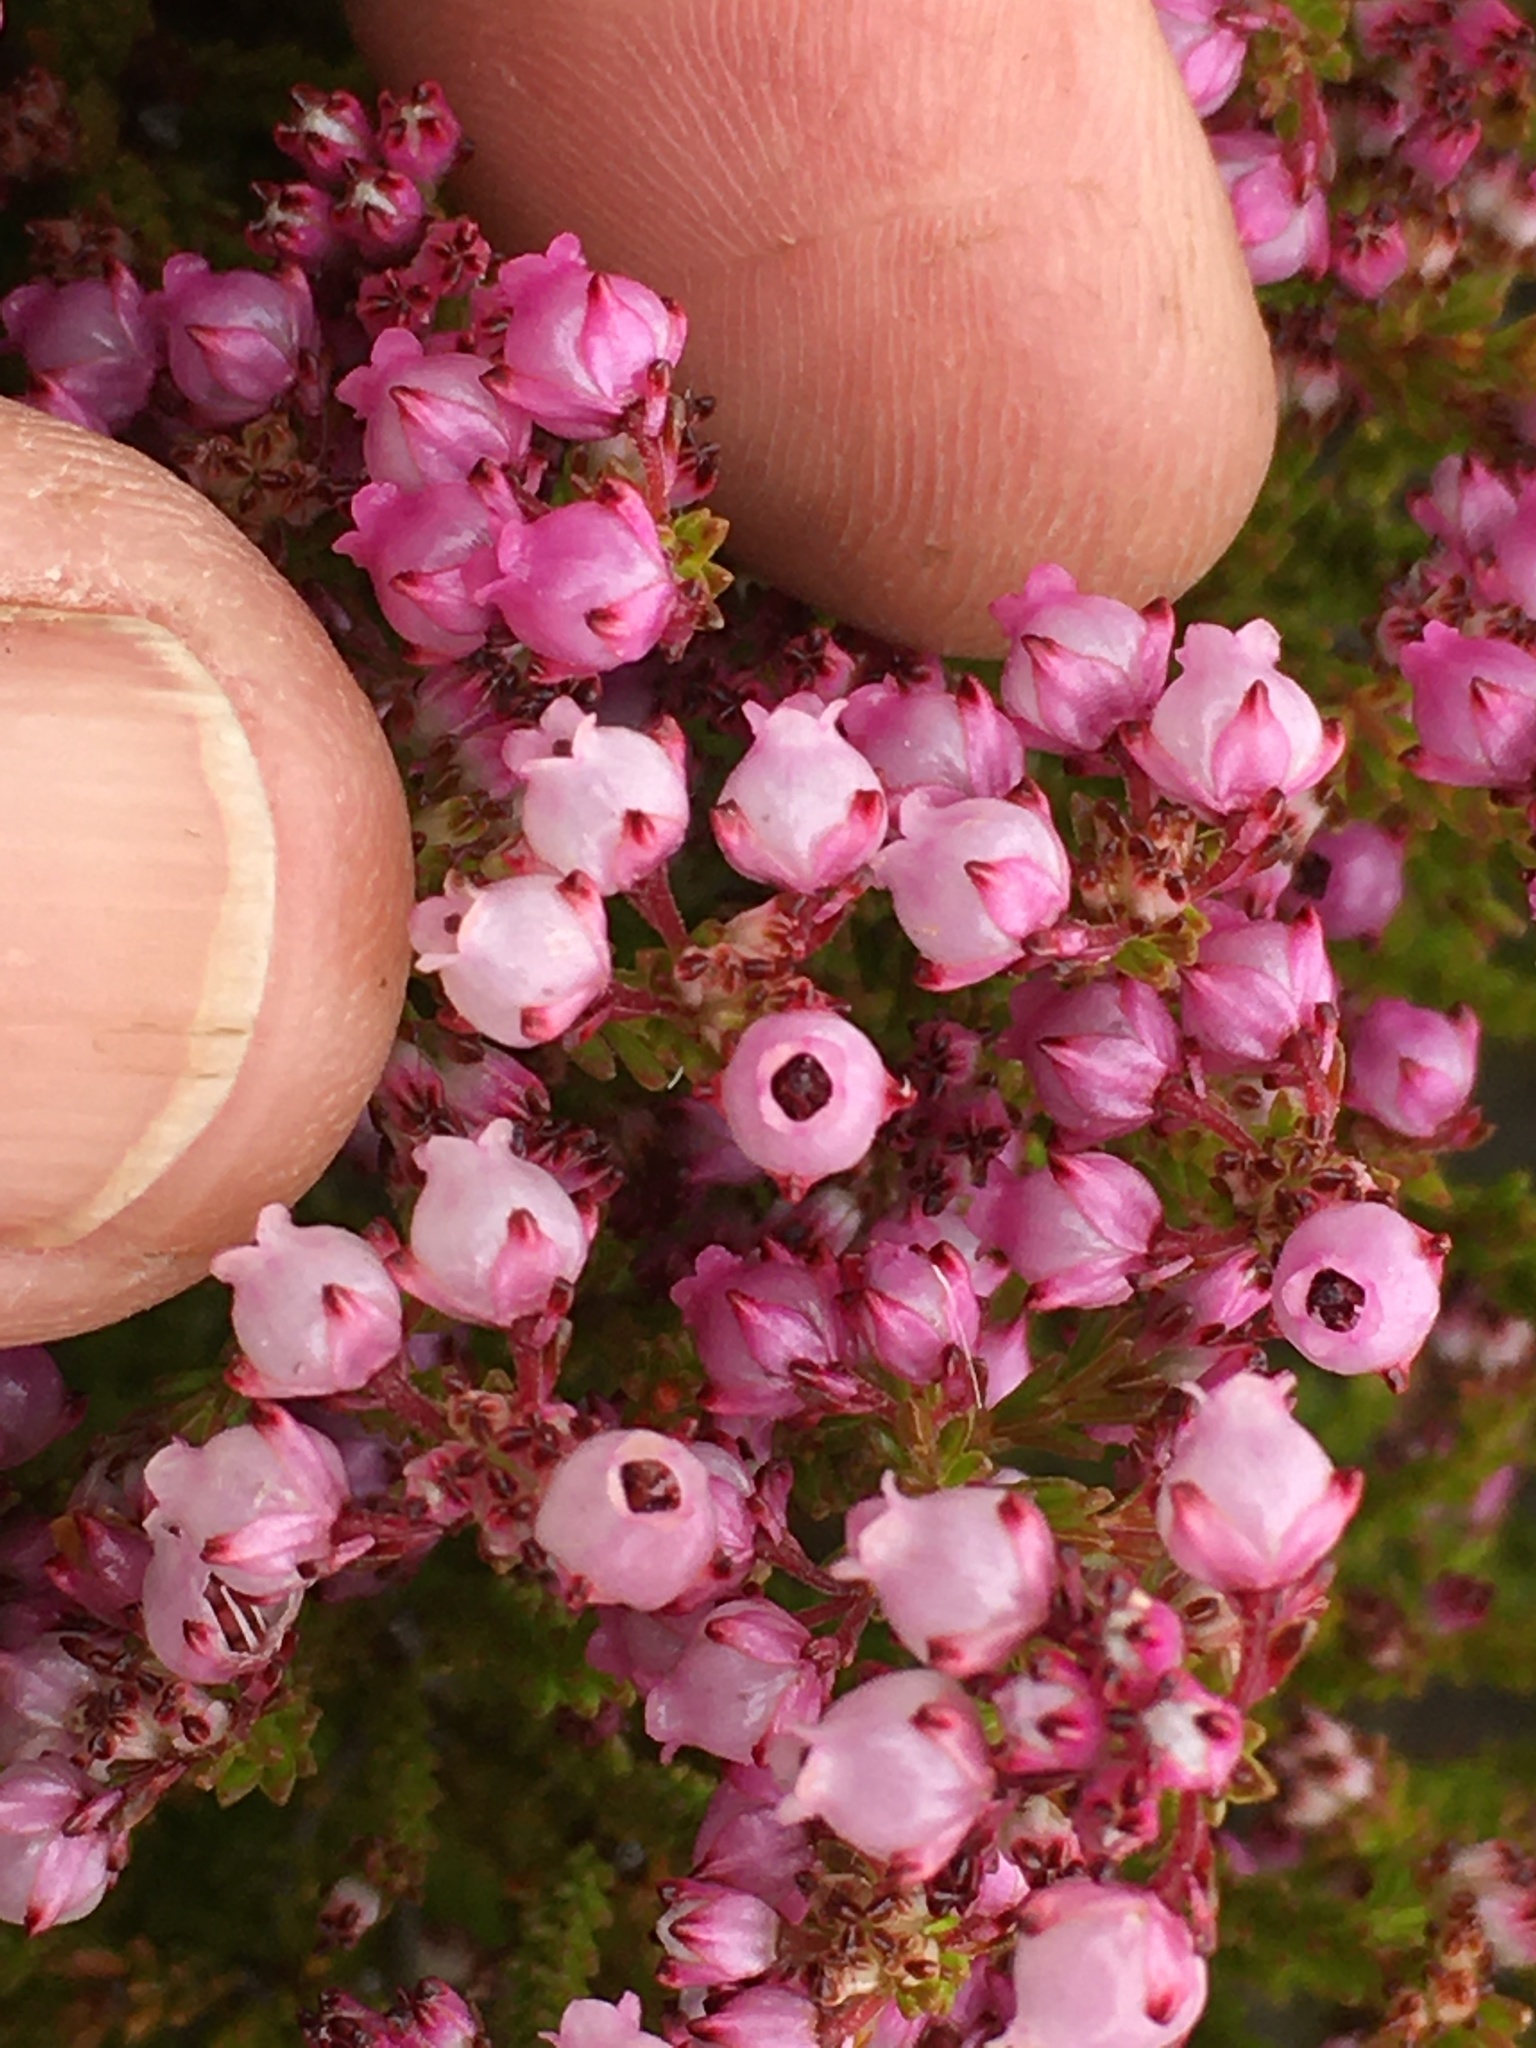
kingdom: Plantae
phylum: Tracheophyta
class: Magnoliopsida
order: Ericales
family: Ericaceae
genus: Erica
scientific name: Erica ferrea
